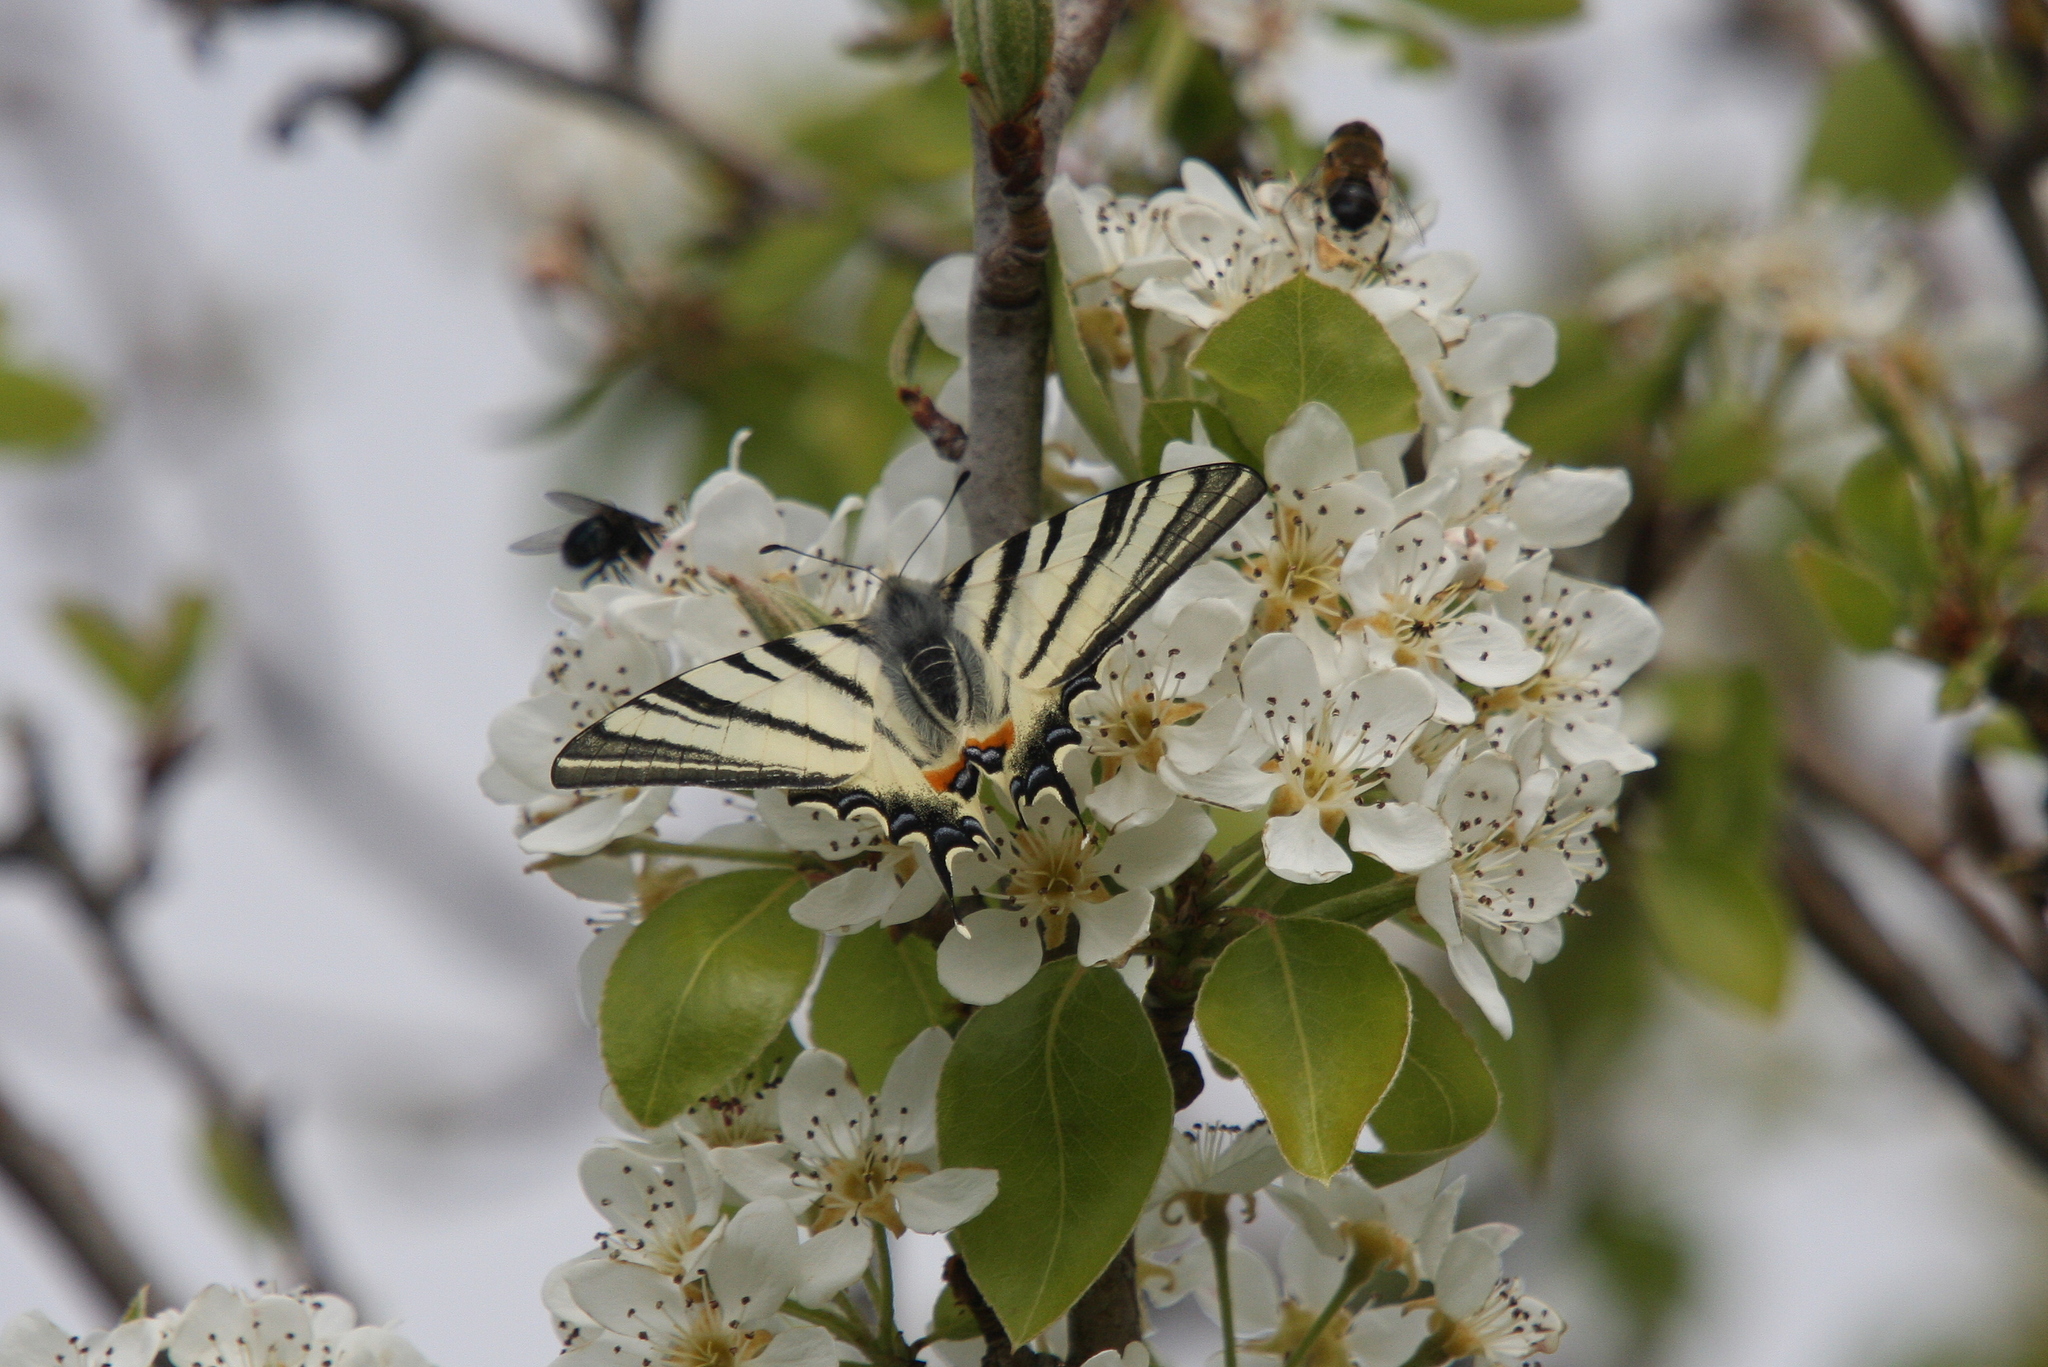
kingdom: Animalia
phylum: Arthropoda
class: Insecta
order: Lepidoptera
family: Papilionidae
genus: Iphiclides
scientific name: Iphiclides podalirius
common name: Scarce swallowtail
